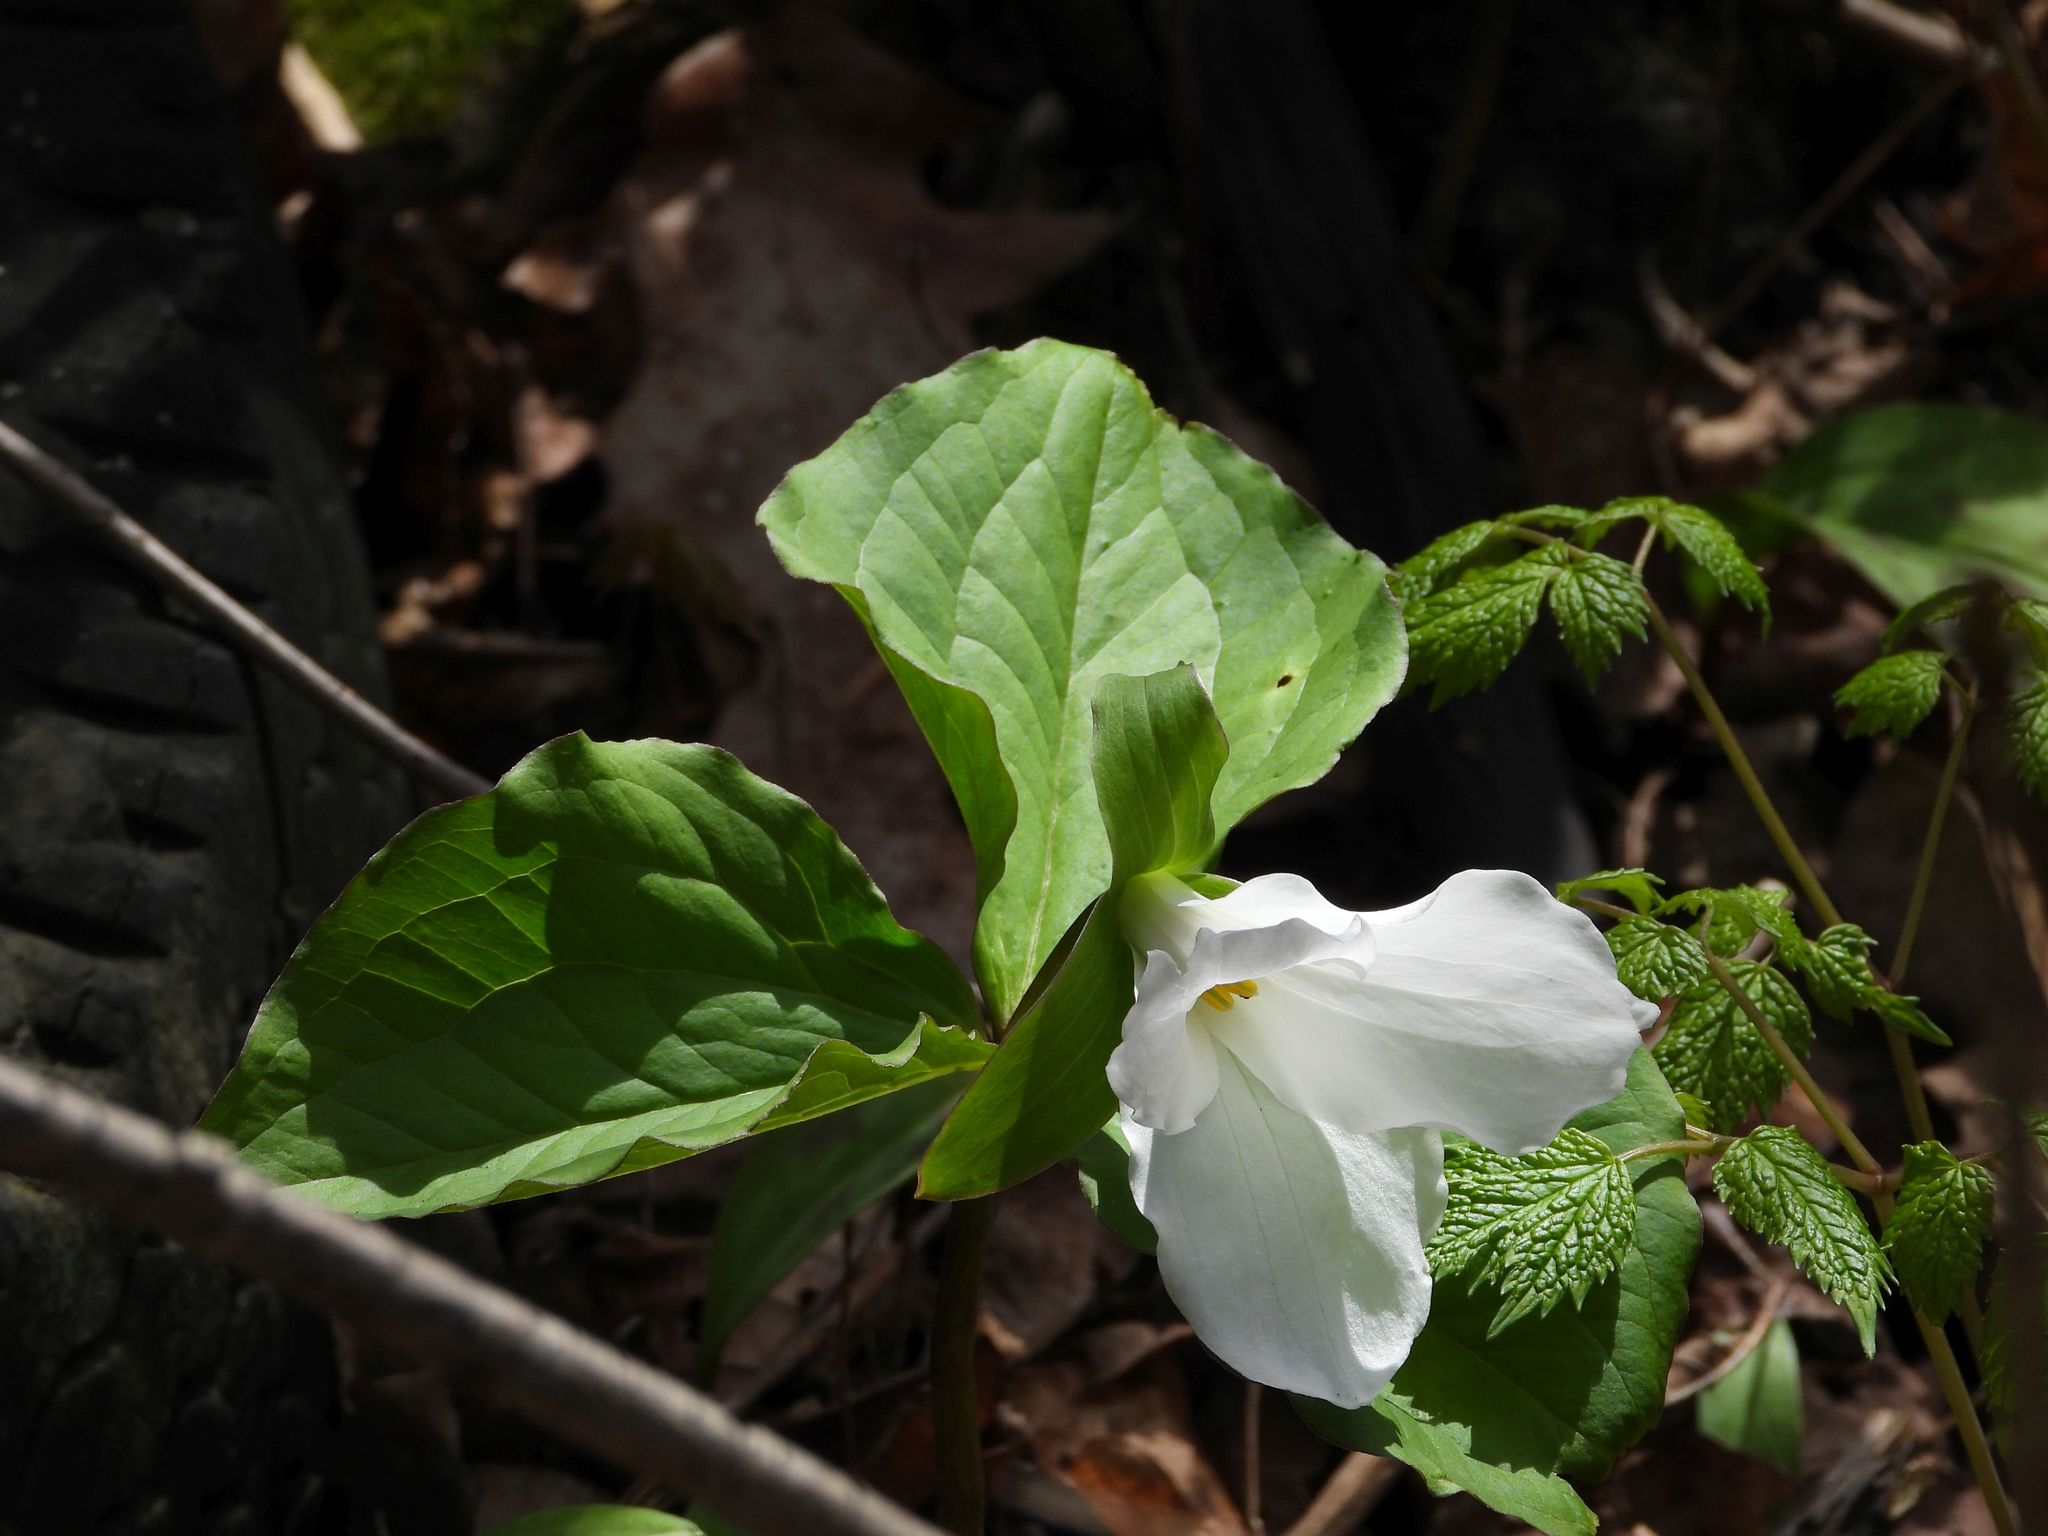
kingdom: Plantae
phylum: Tracheophyta
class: Liliopsida
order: Liliales
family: Melanthiaceae
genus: Trillium
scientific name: Trillium grandiflorum
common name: Great white trillium
